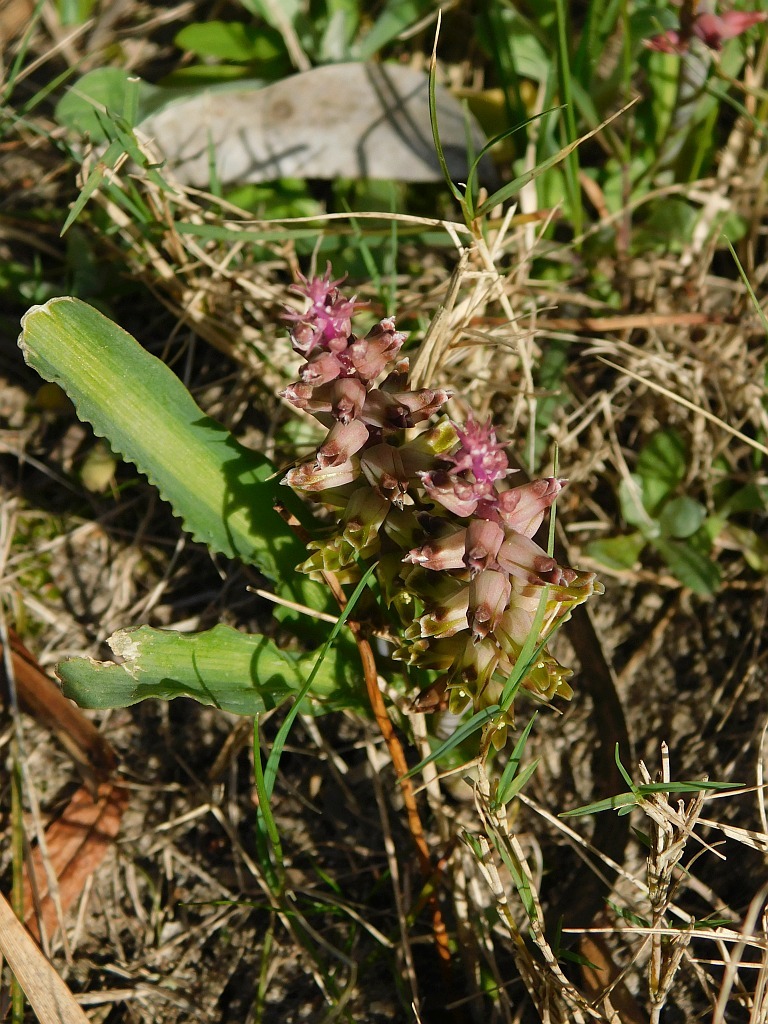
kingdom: Plantae
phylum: Tracheophyta
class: Liliopsida
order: Asparagales
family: Asparagaceae
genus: Lachenalia
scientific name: Lachenalia mutabilis
